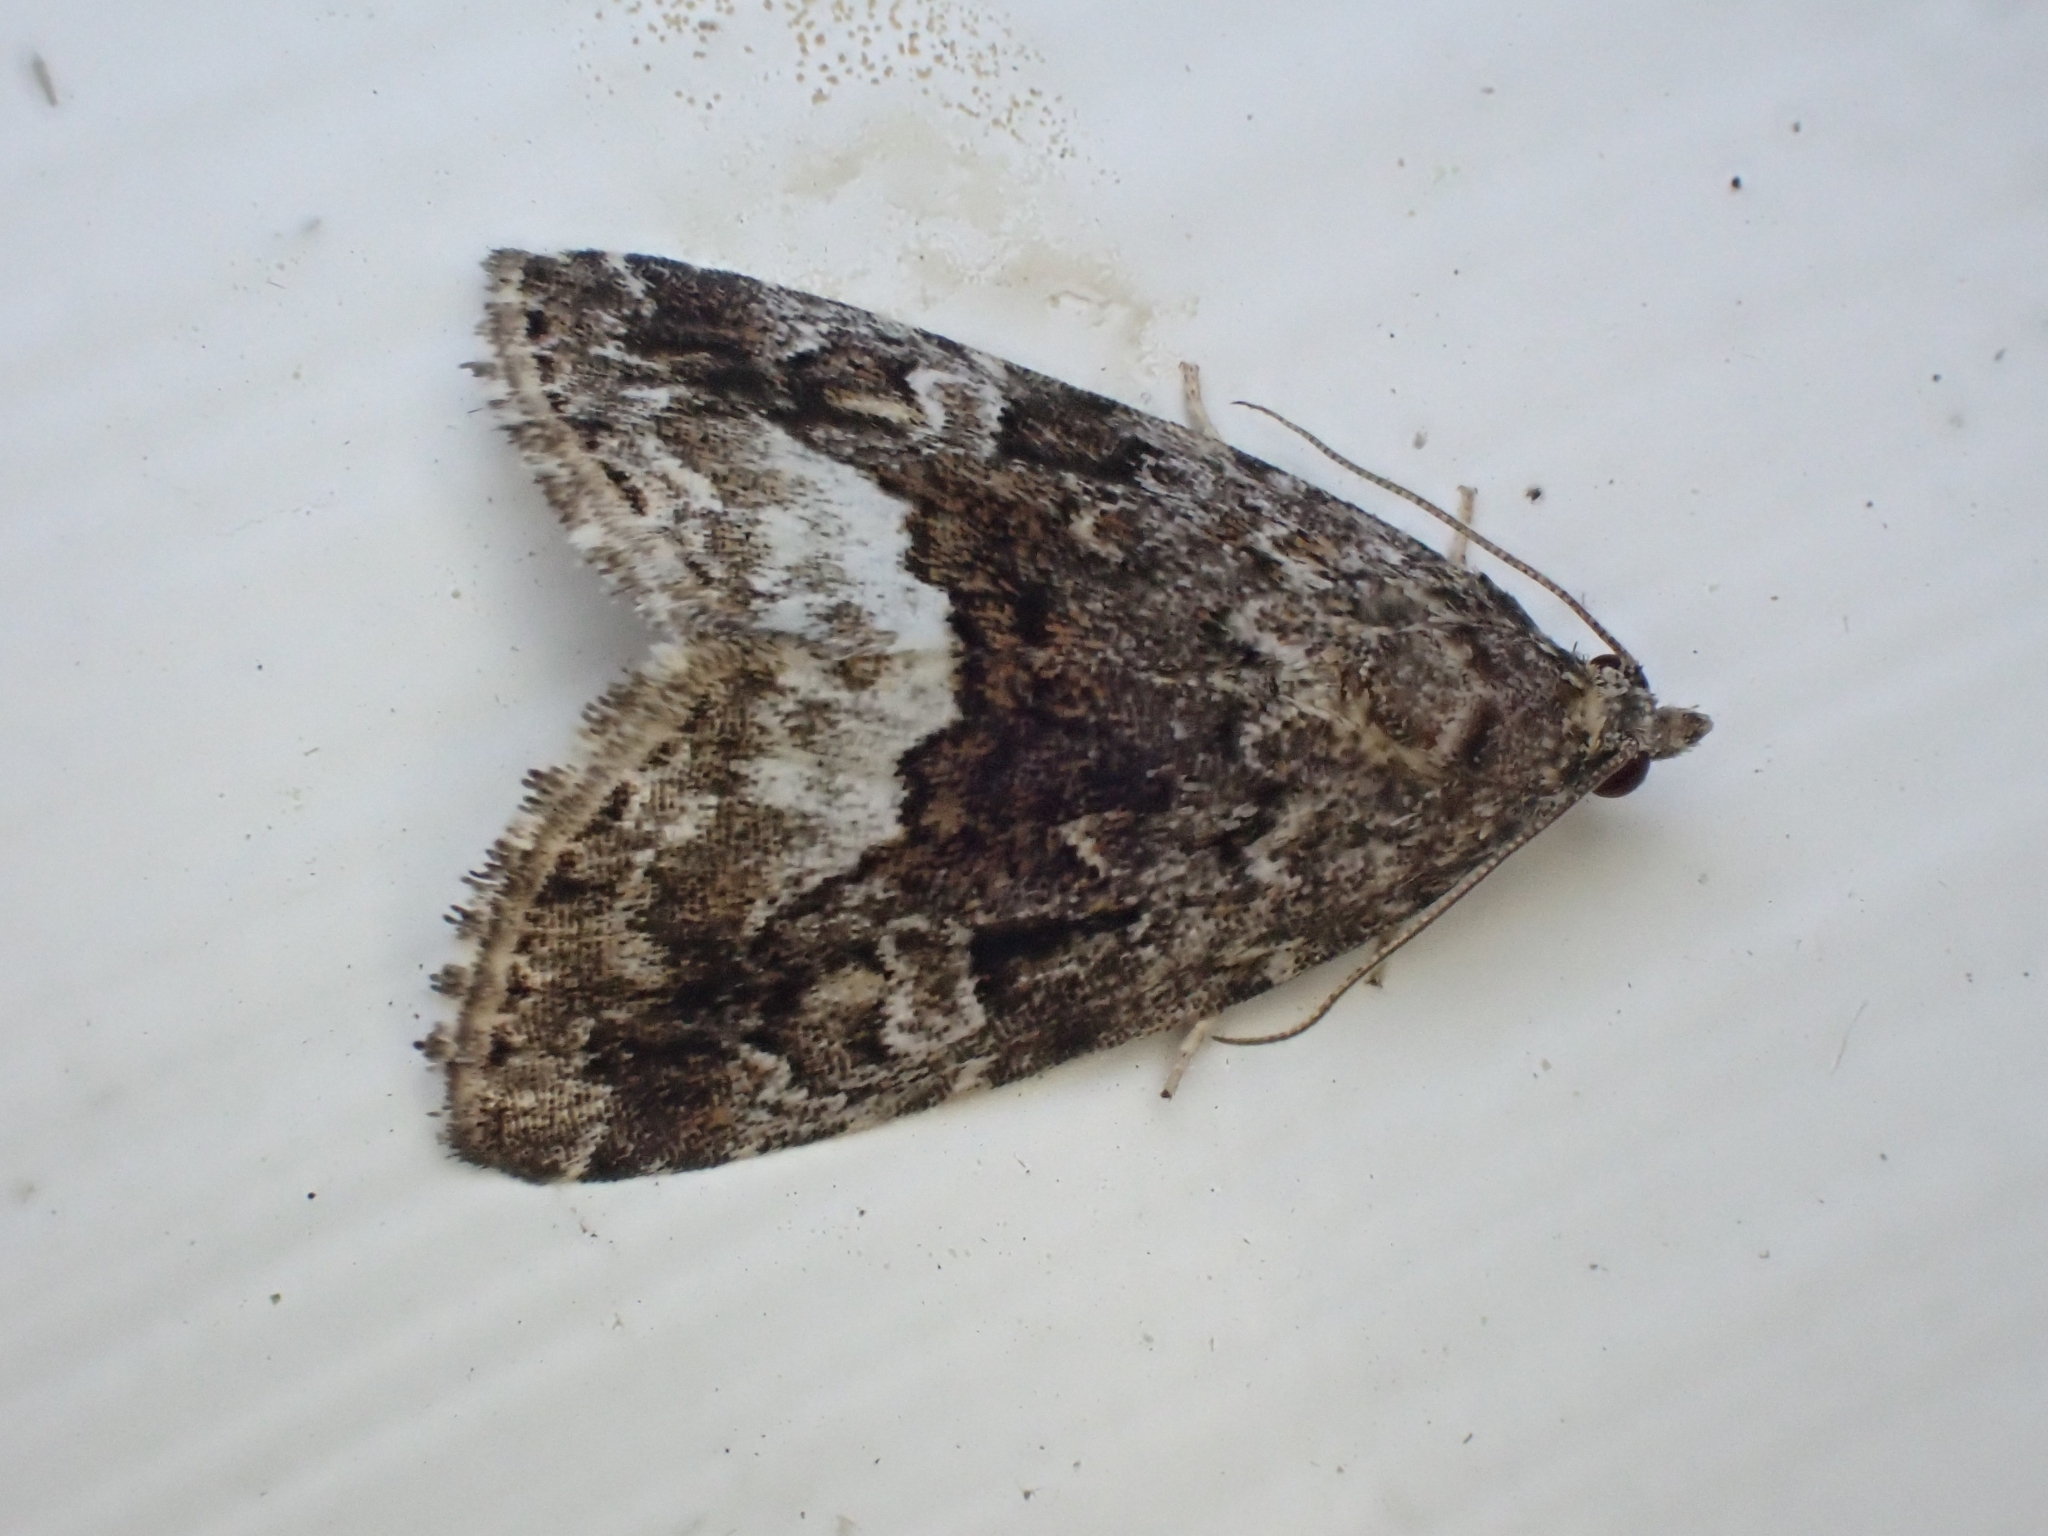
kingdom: Animalia
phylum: Arthropoda
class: Insecta
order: Lepidoptera
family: Noctuidae
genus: Deltote
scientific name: Deltote pygarga
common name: Marbled white spot
